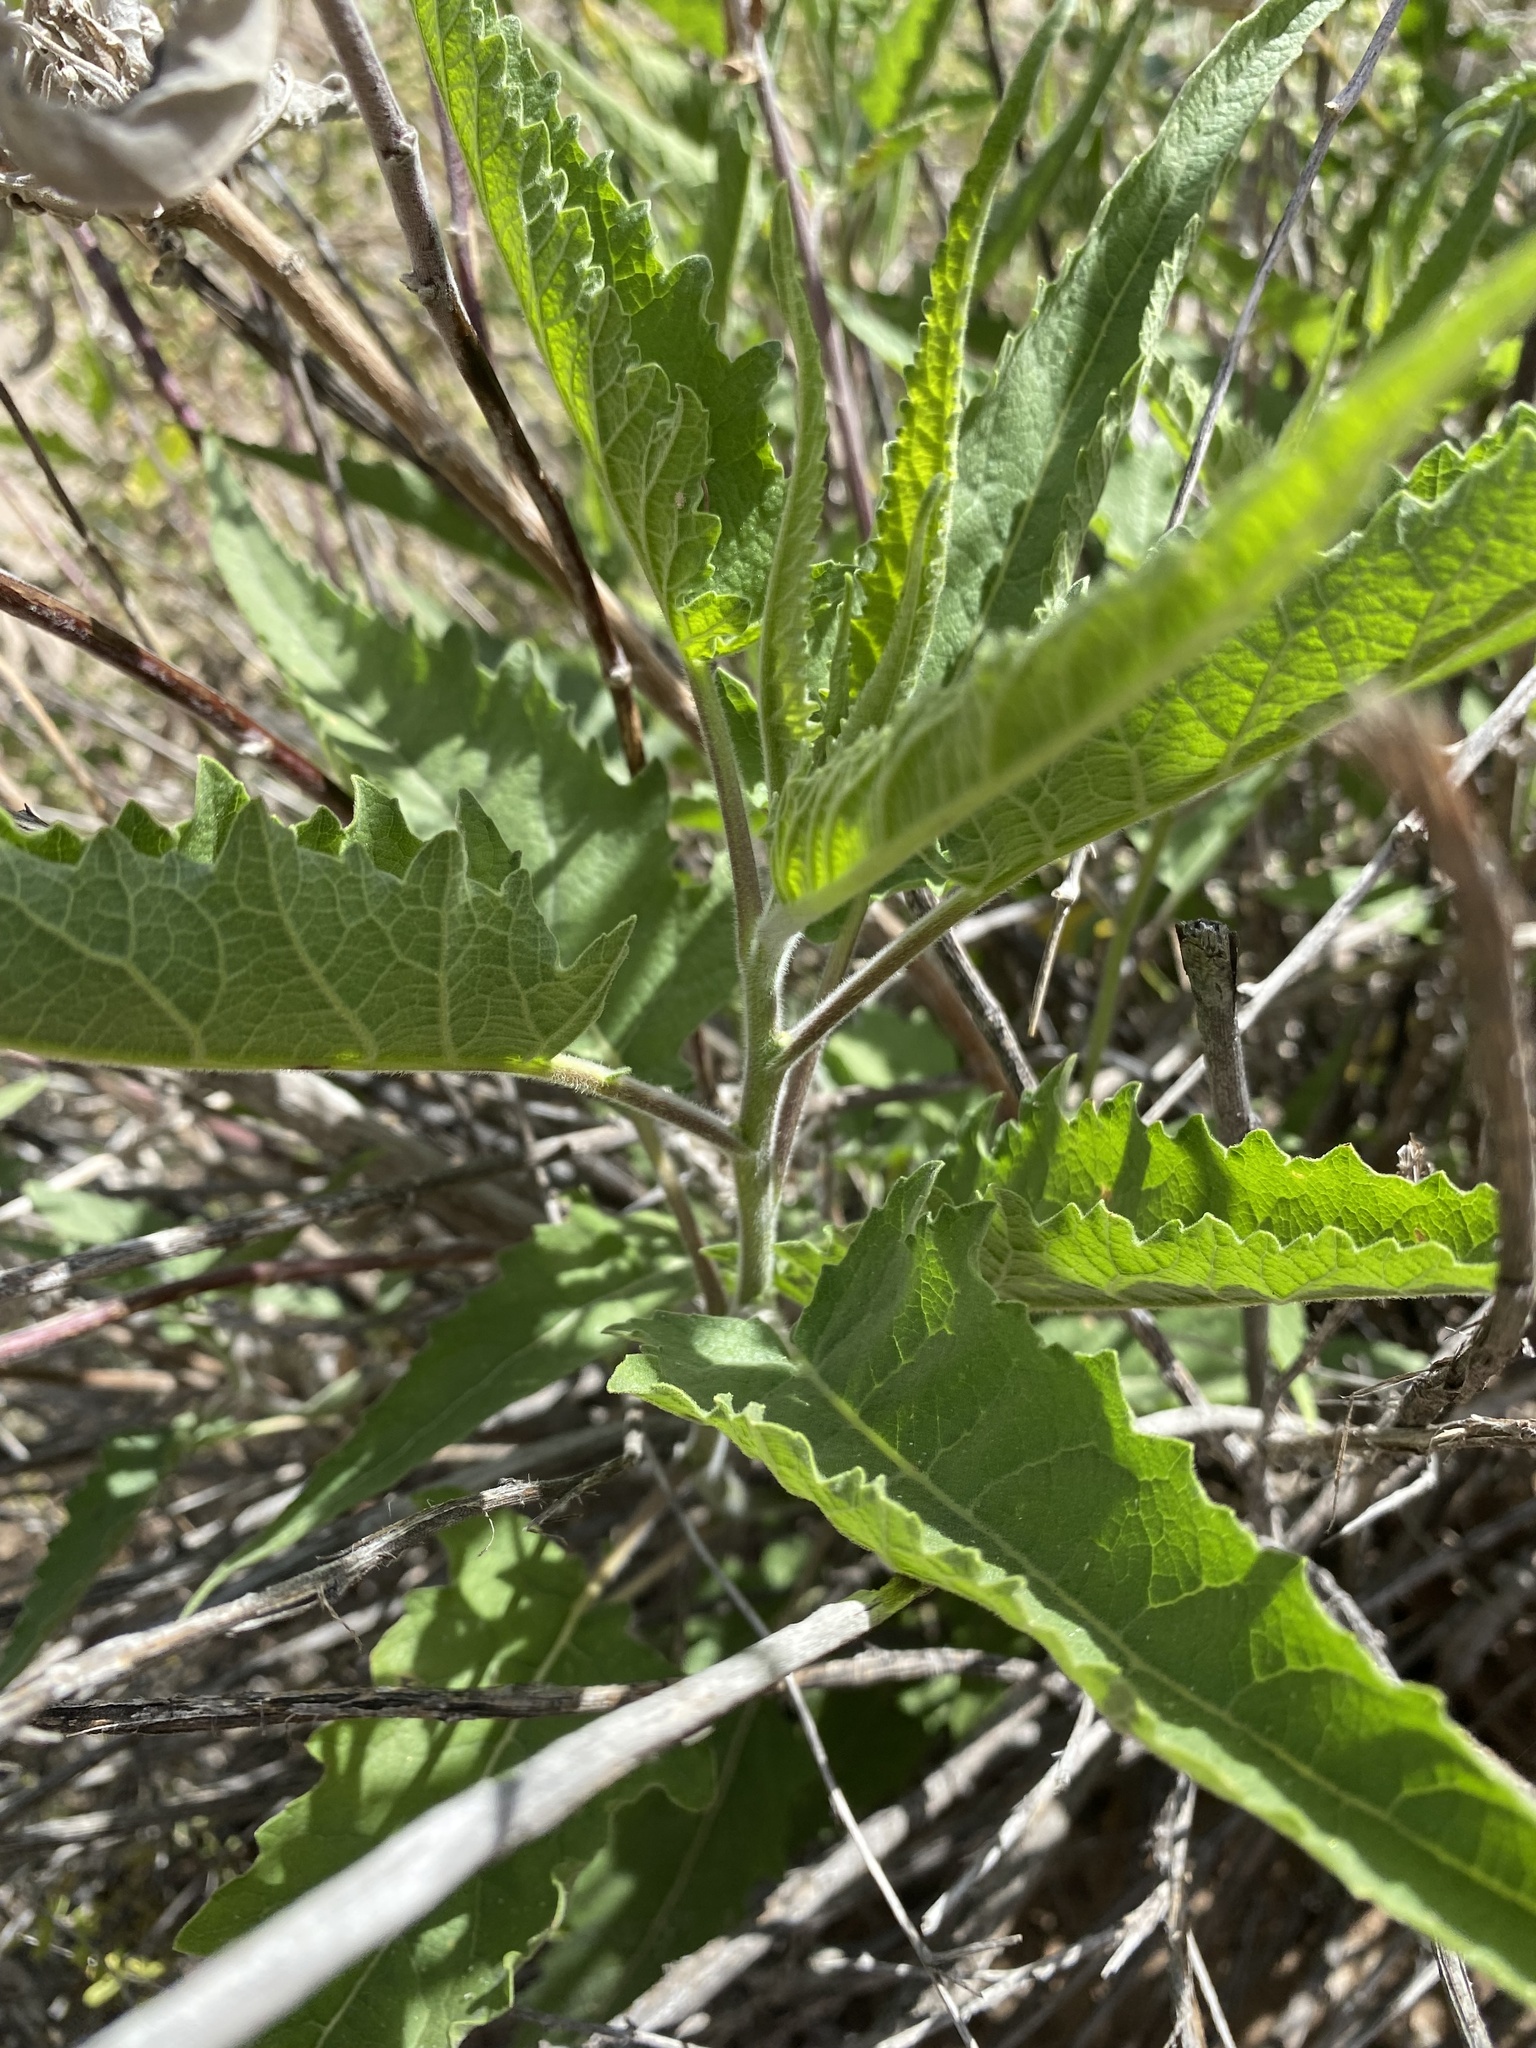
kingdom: Plantae
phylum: Tracheophyta
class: Magnoliopsida
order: Asterales
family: Asteraceae
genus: Ambrosia
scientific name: Ambrosia ambrosioides
